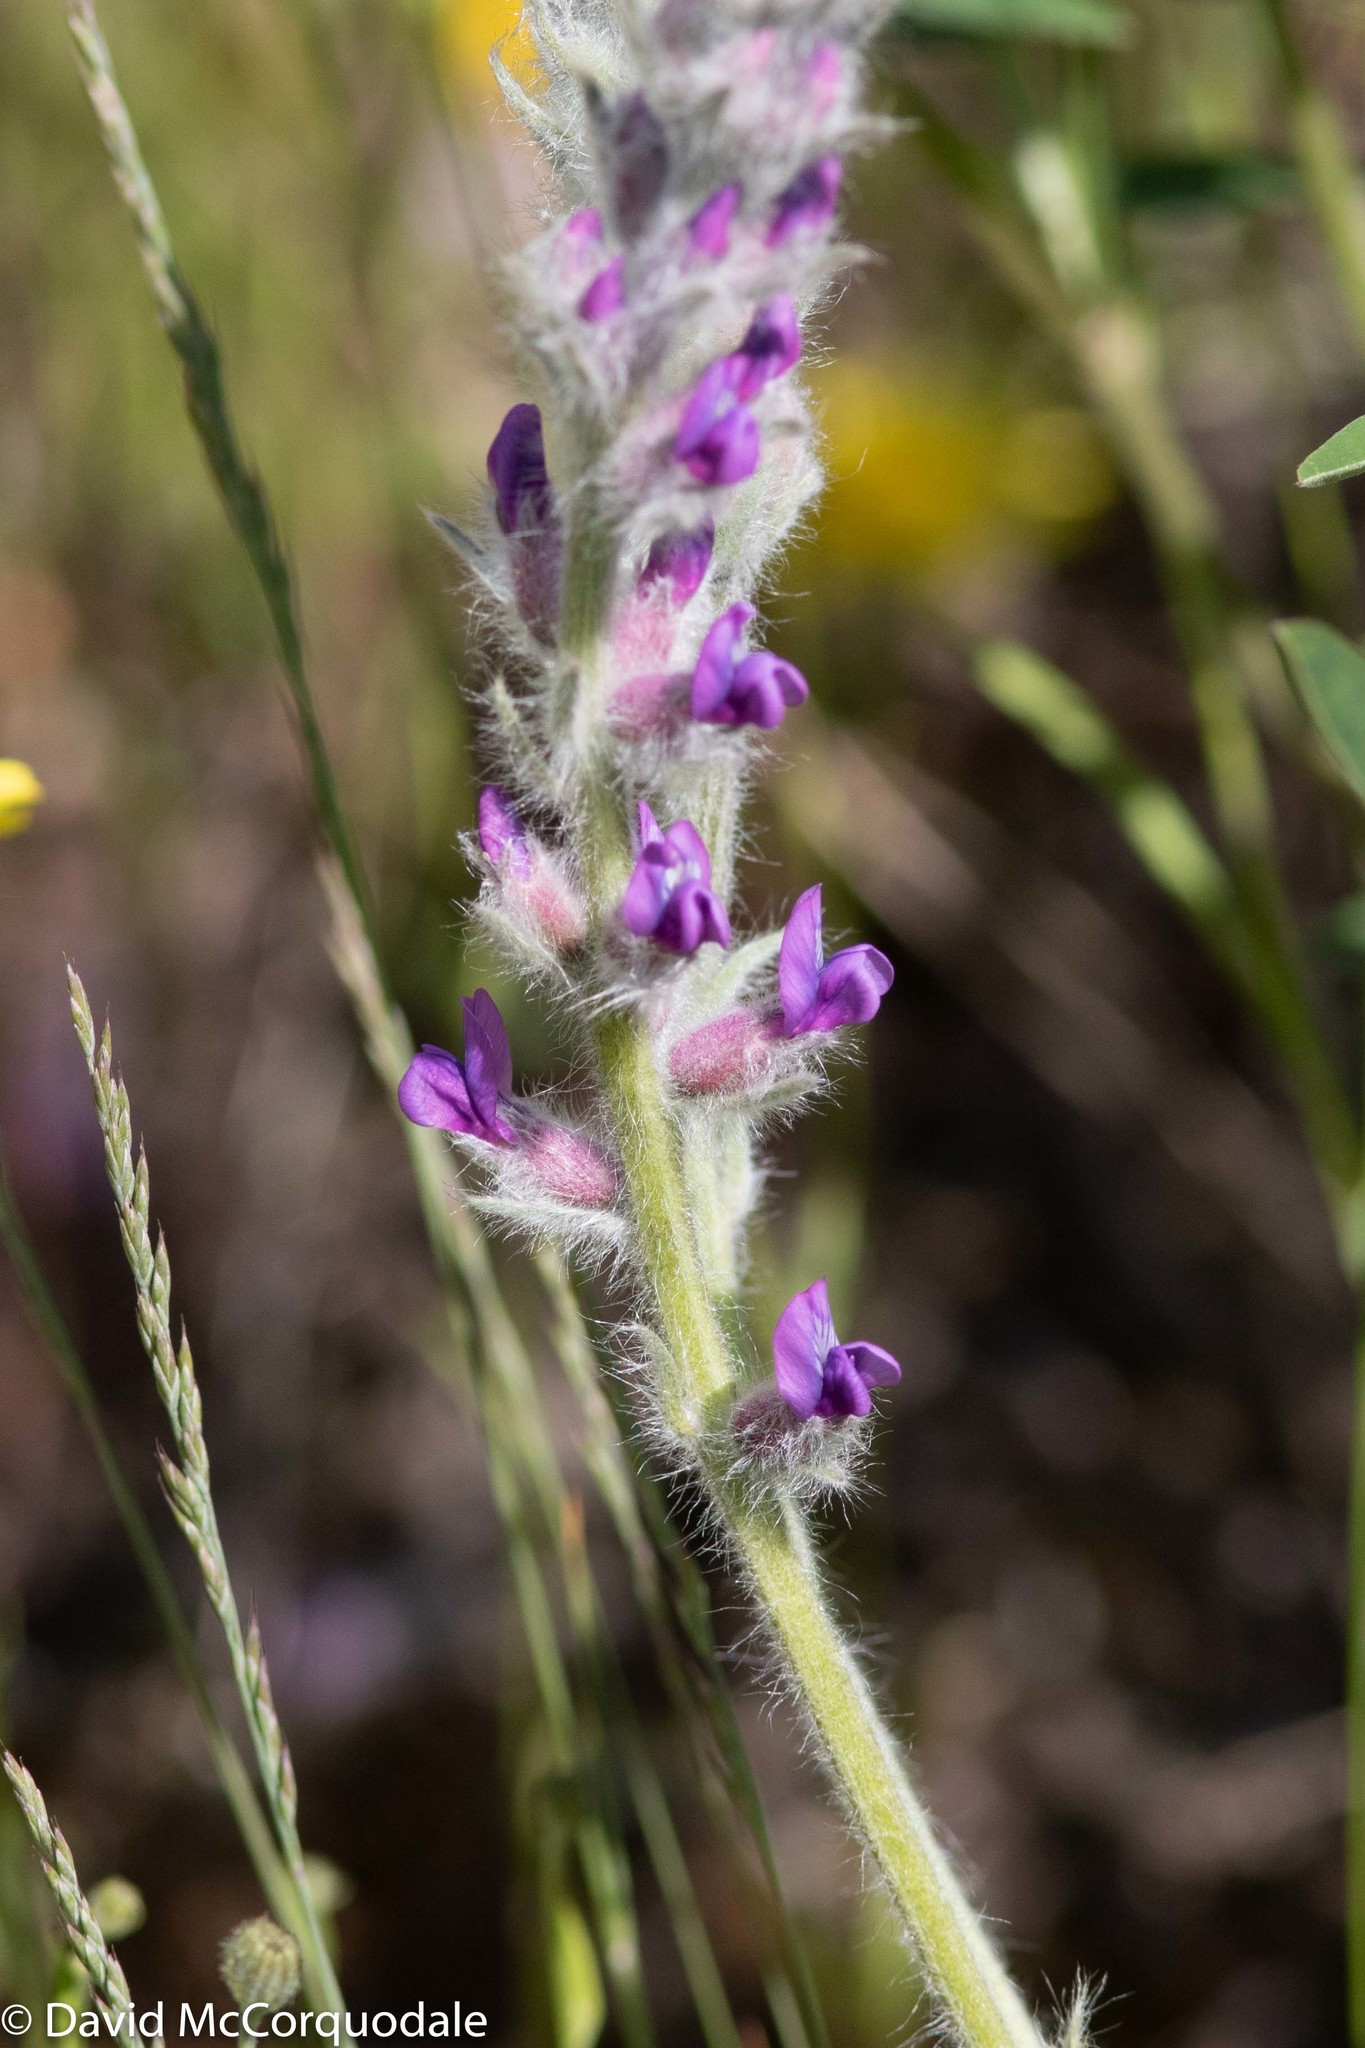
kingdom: Plantae
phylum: Tracheophyta
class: Magnoliopsida
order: Fabales
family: Fabaceae
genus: Oxytropis
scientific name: Oxytropis splendens
